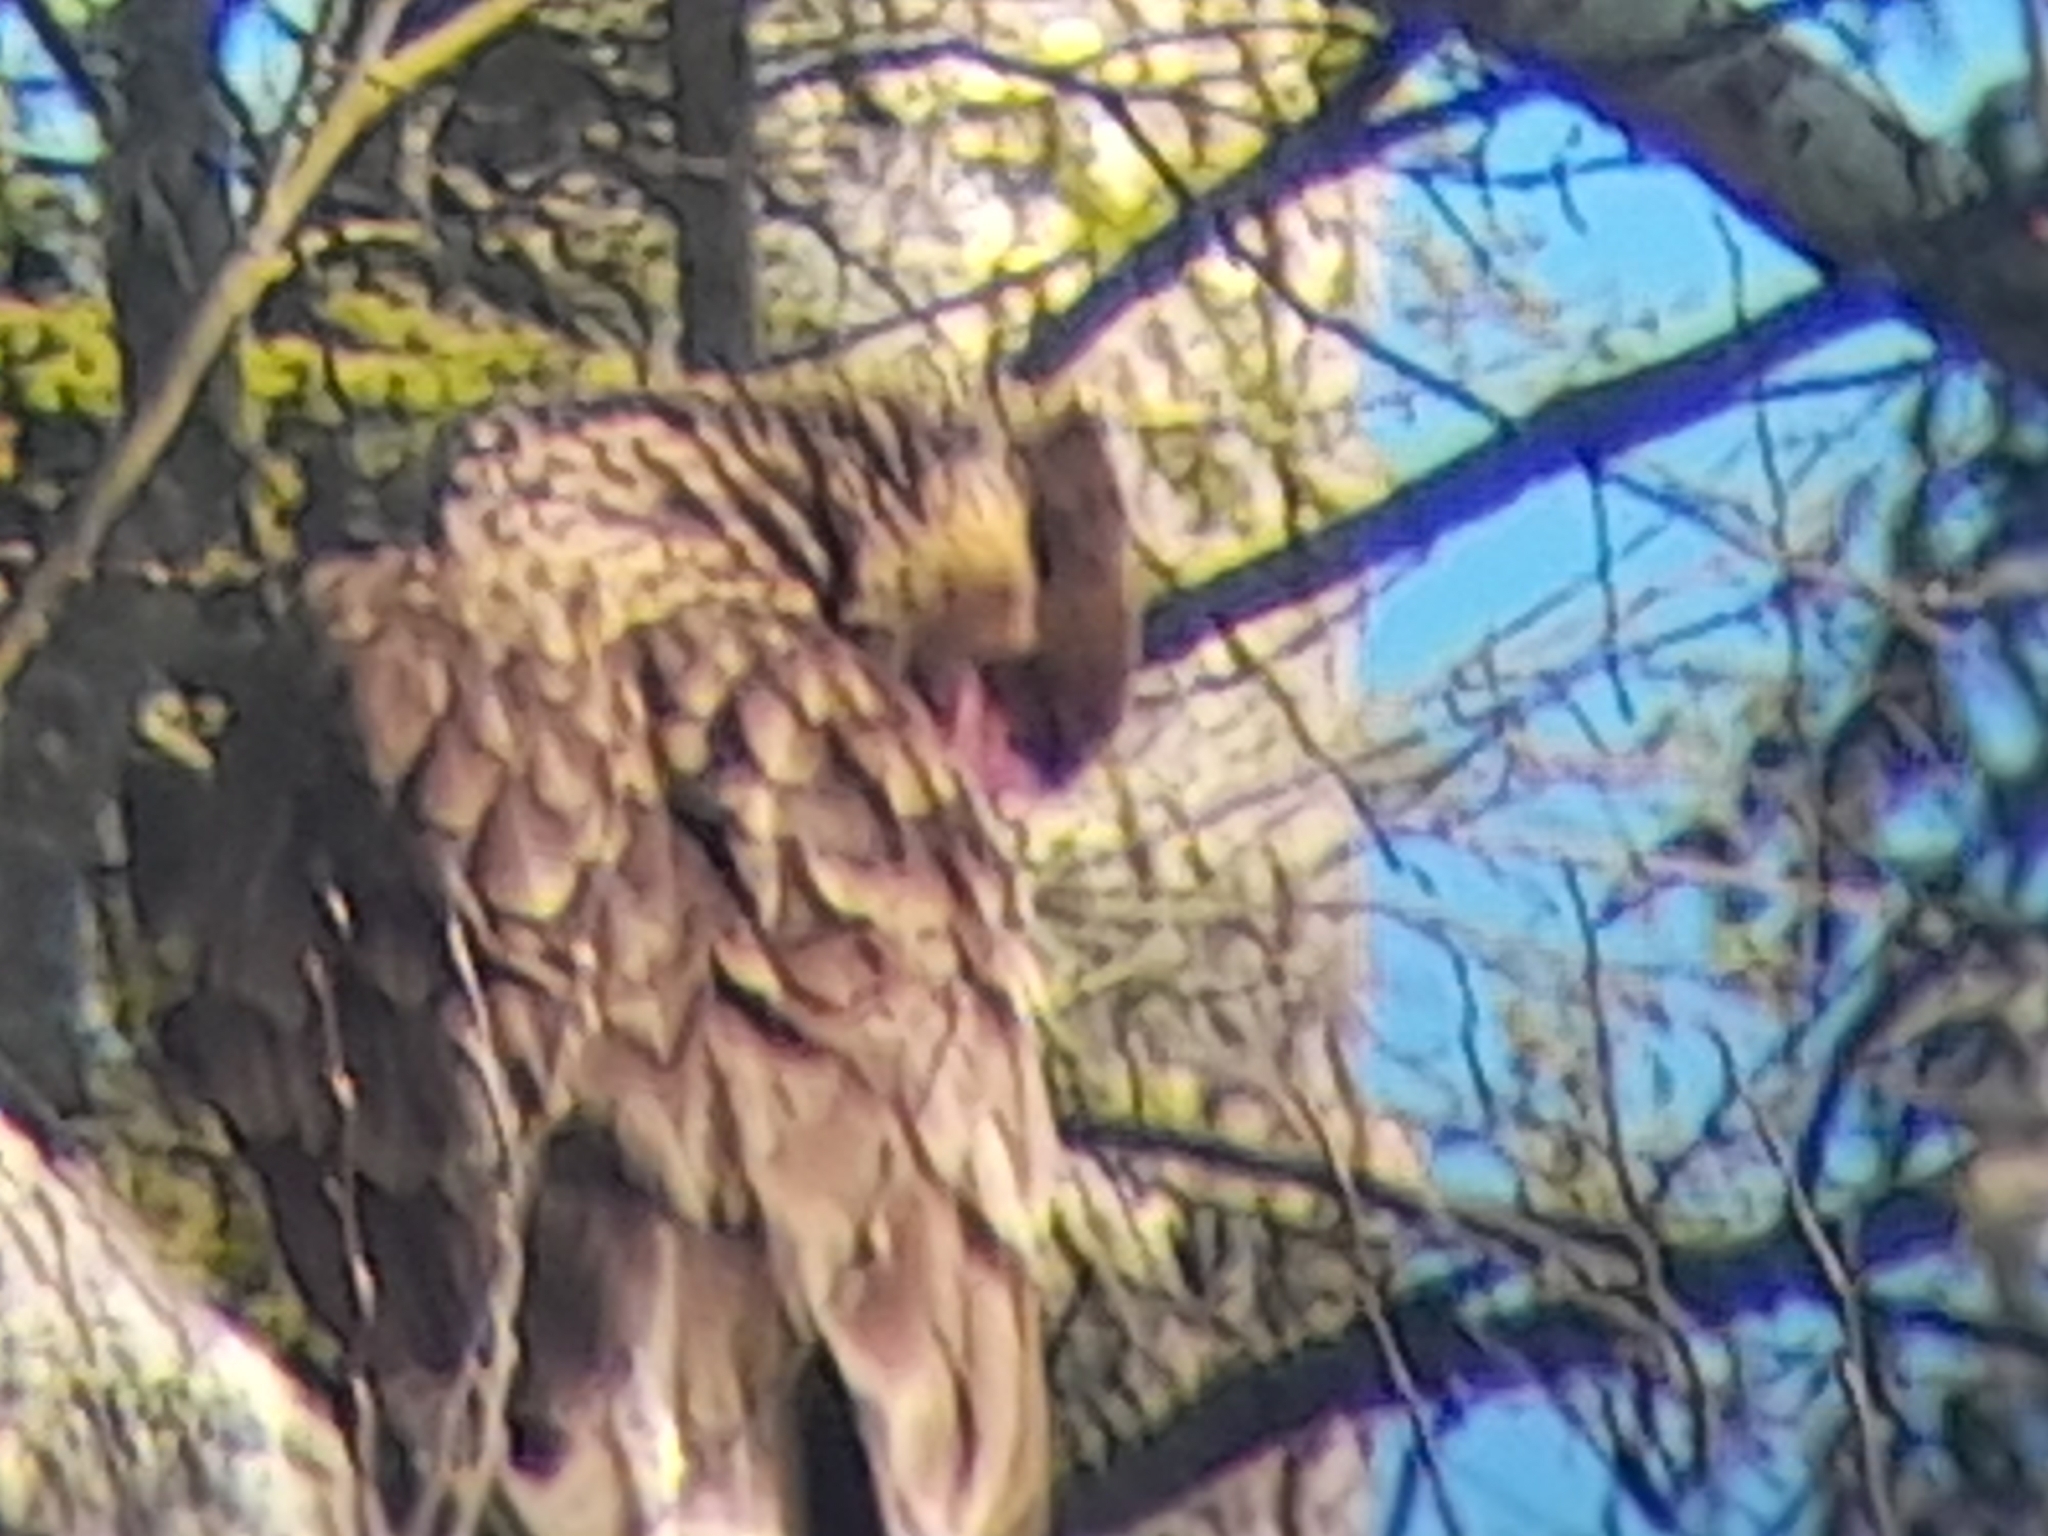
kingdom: Animalia
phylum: Chordata
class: Aves
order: Falconiformes
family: Falconidae
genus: Caracara
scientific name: Caracara plancus
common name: Southern caracara
